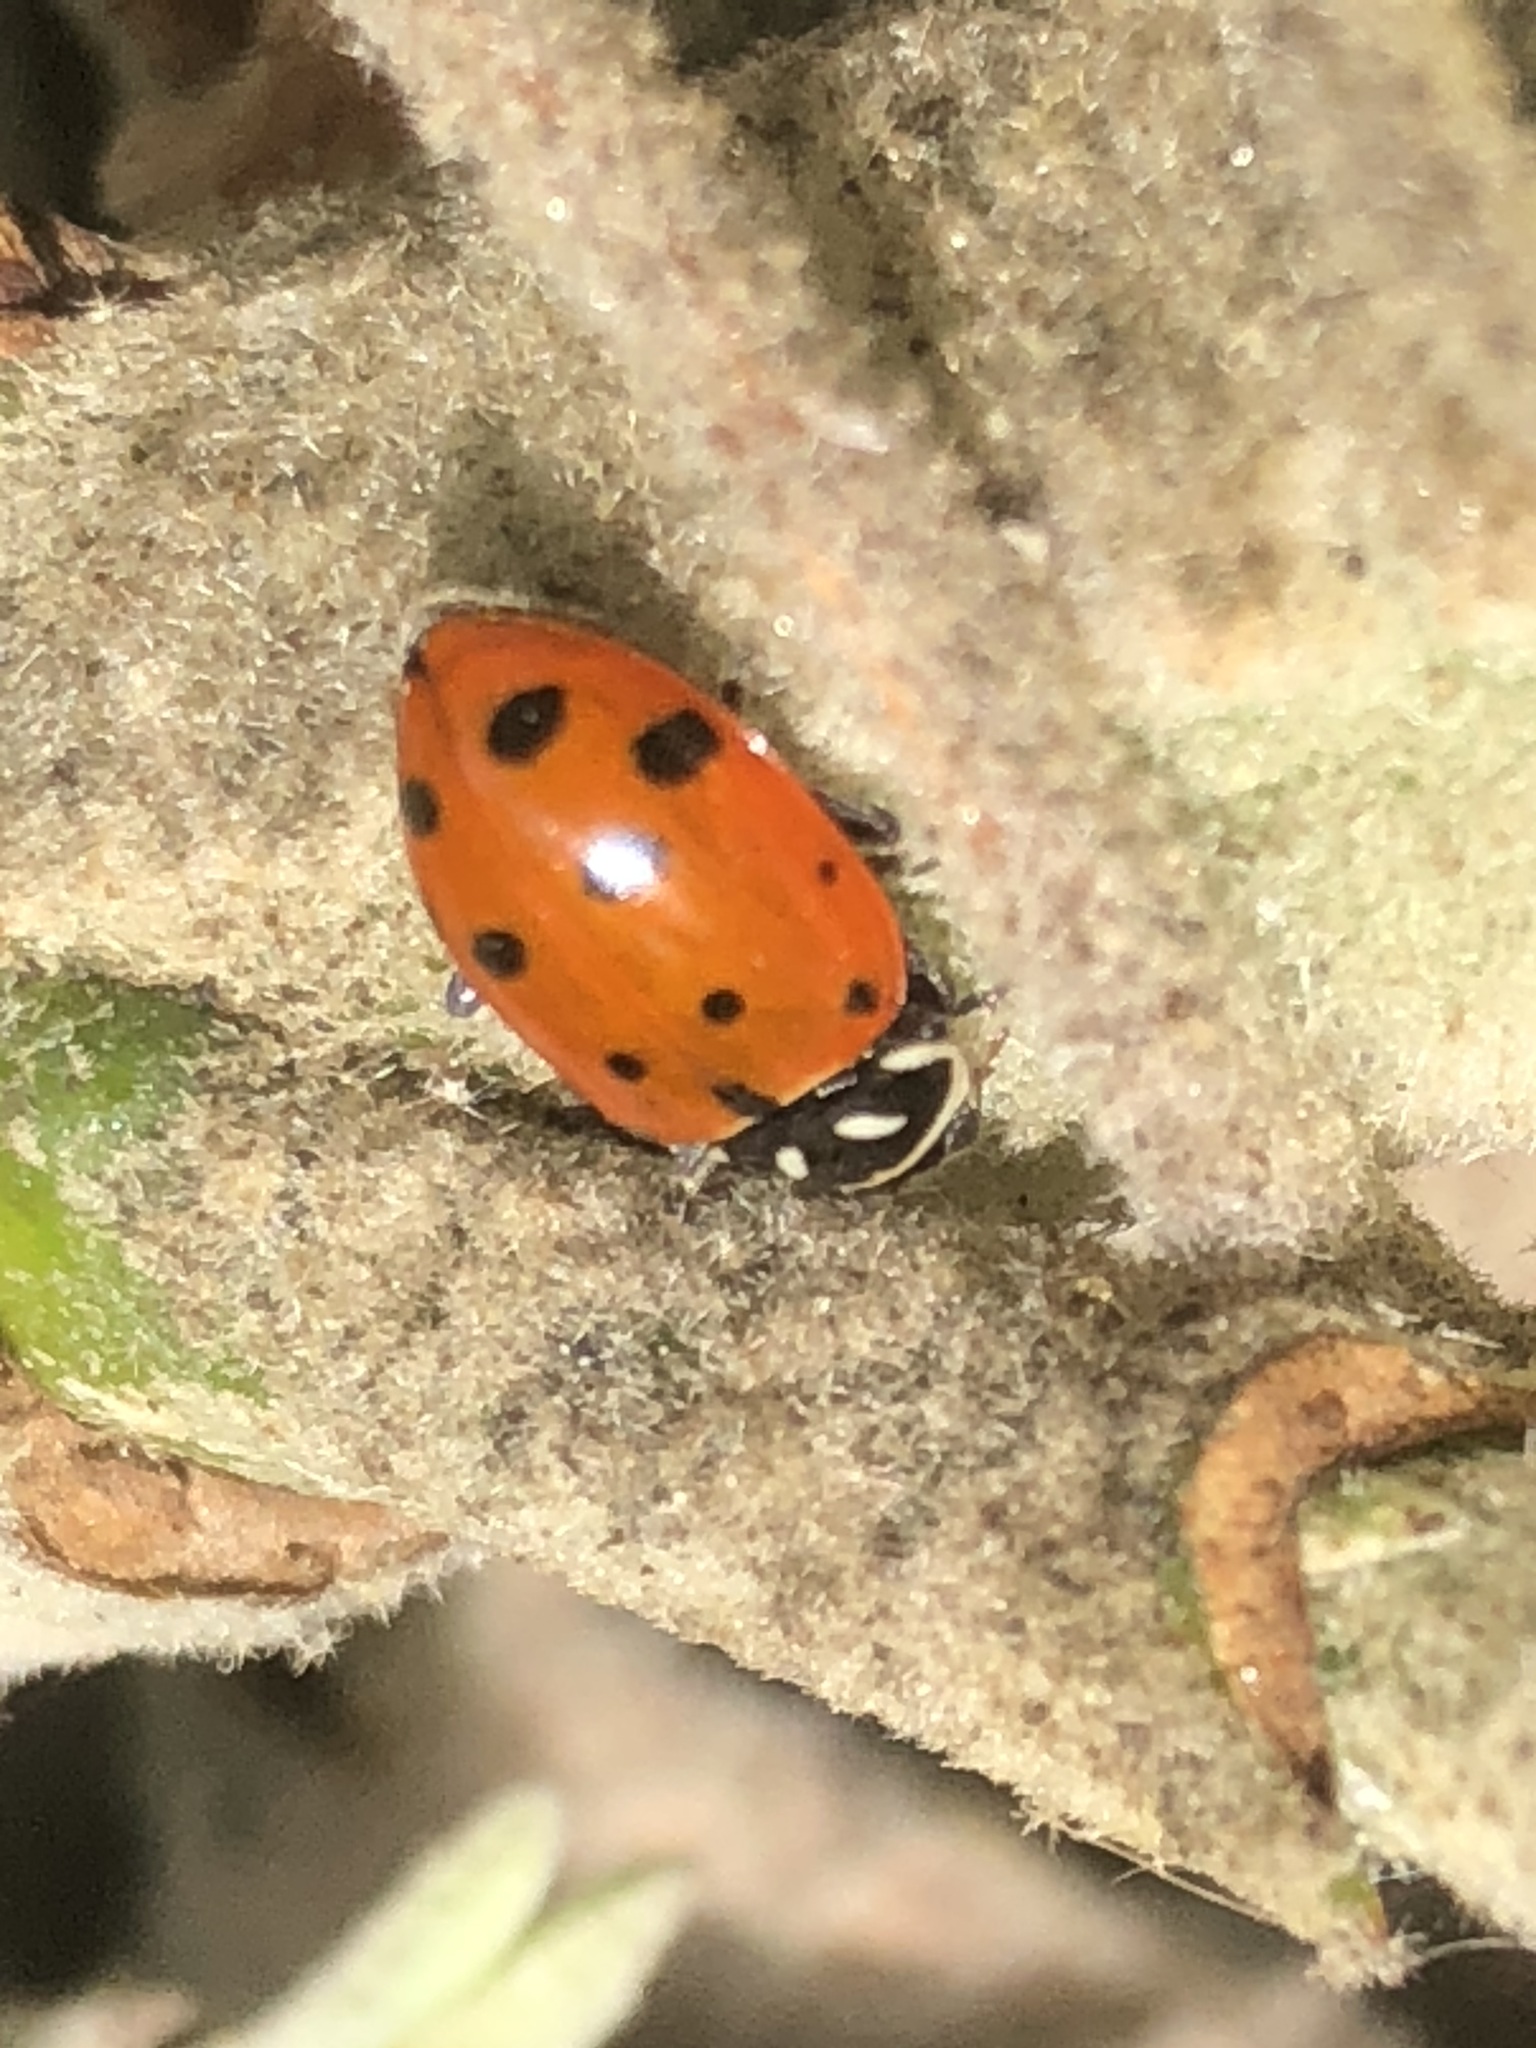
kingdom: Animalia
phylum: Arthropoda
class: Insecta
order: Coleoptera
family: Coccinellidae
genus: Hippodamia
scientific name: Hippodamia convergens
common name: Convergent lady beetle
